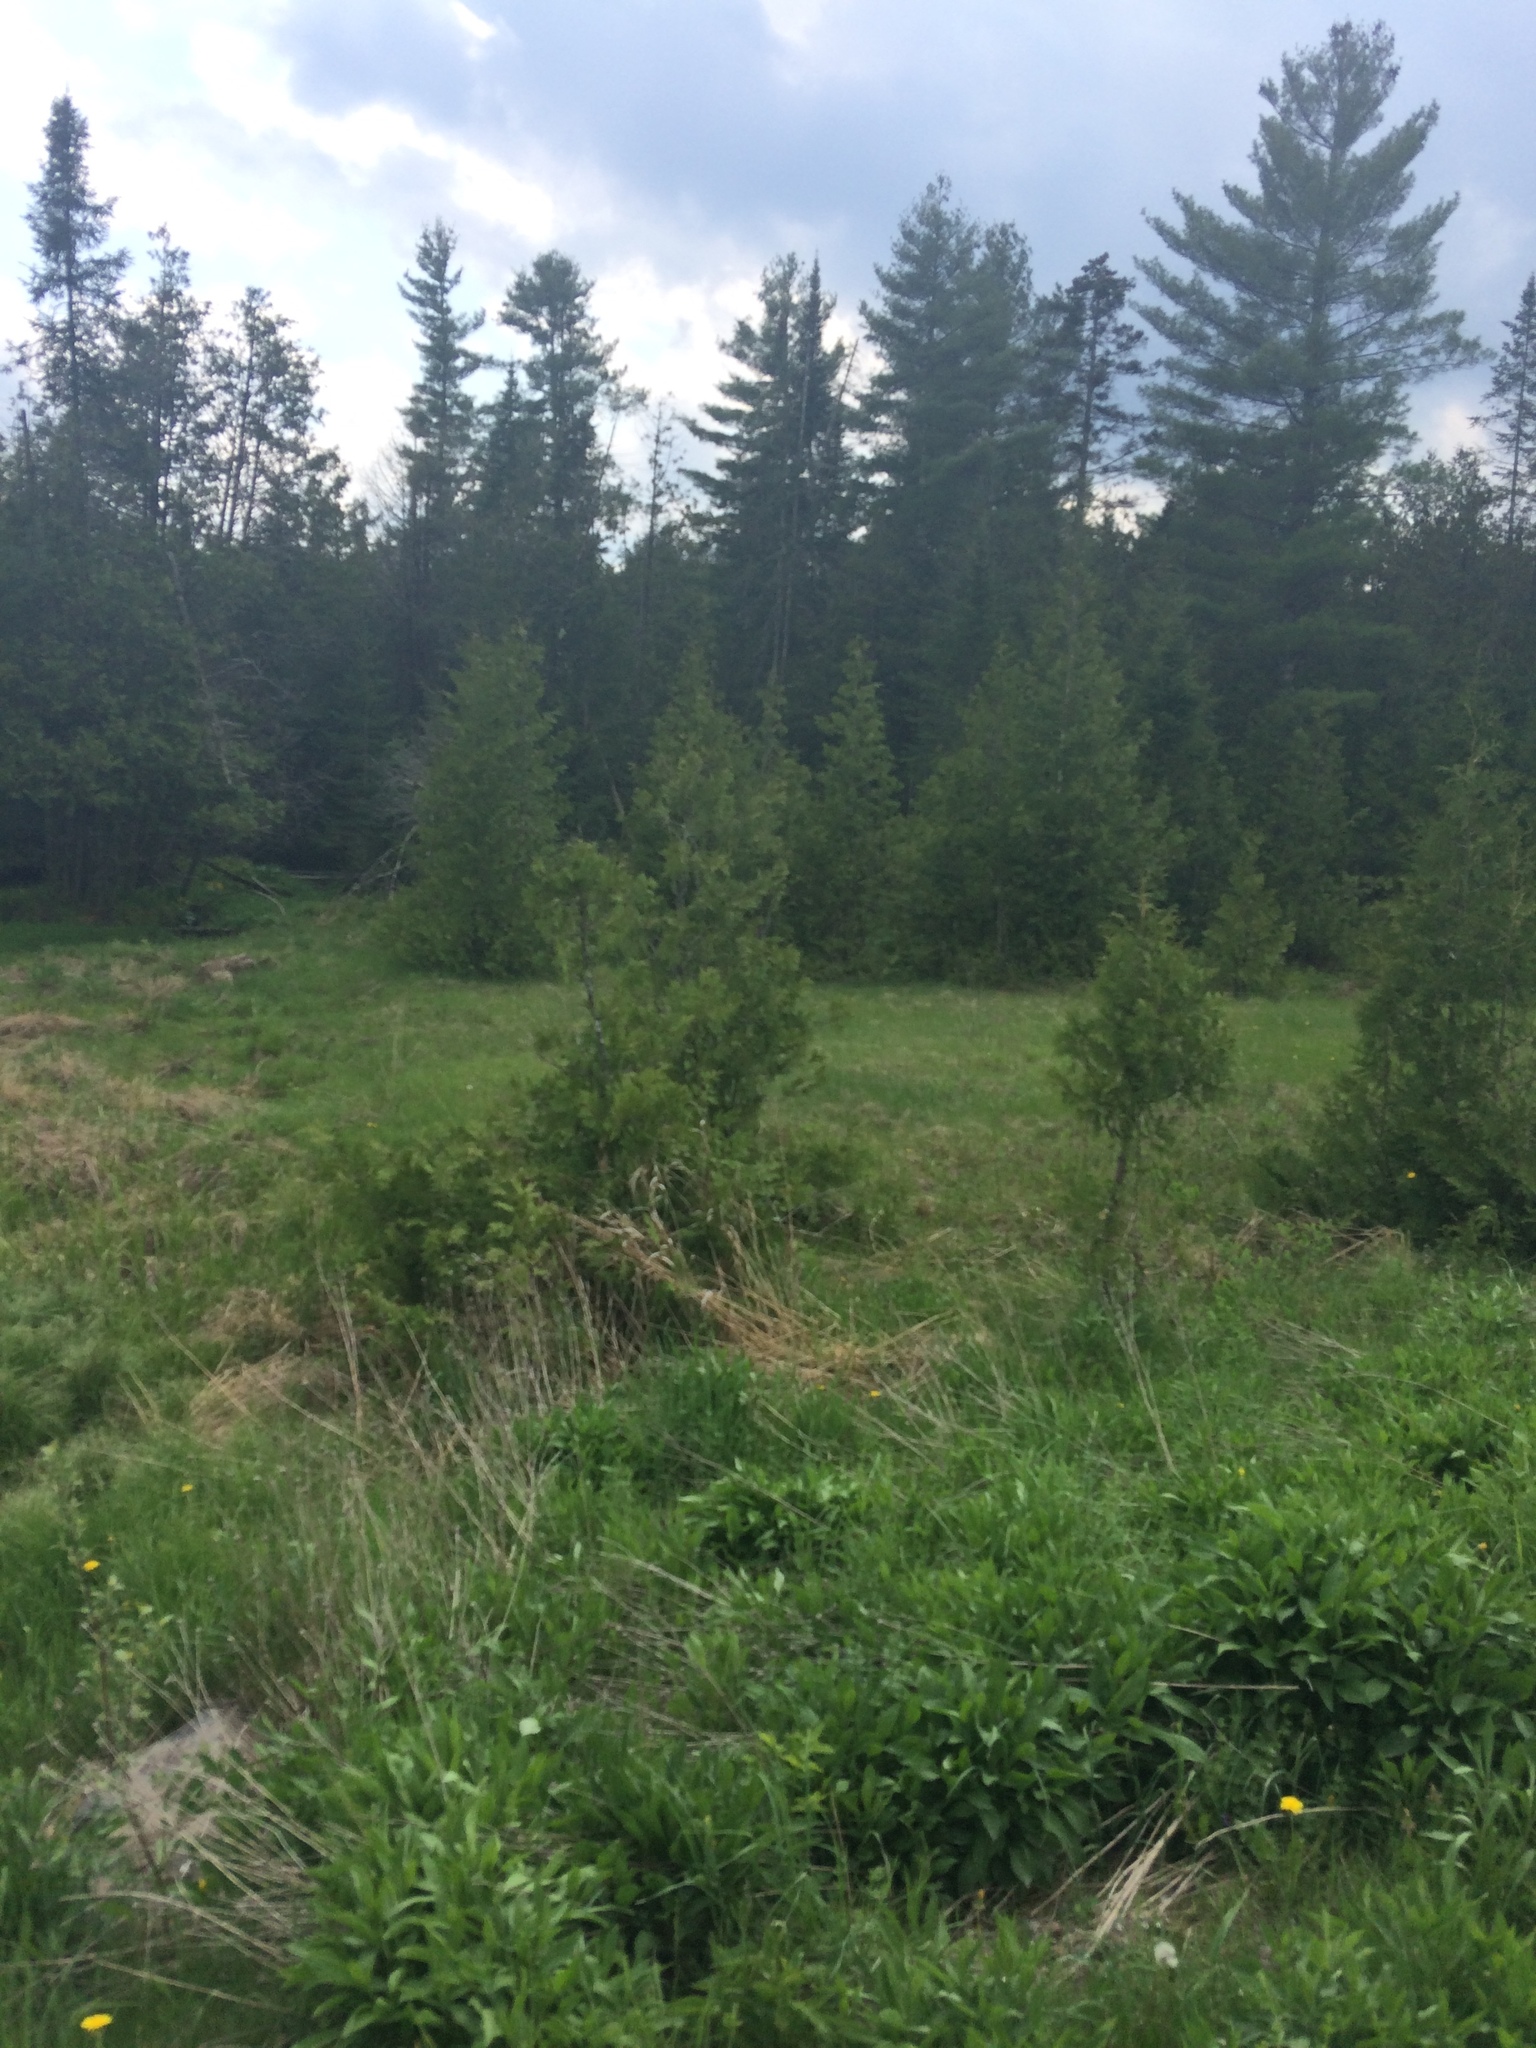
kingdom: Plantae
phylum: Tracheophyta
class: Pinopsida
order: Pinales
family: Cupressaceae
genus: Thuja
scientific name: Thuja occidentalis
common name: Northern white-cedar
